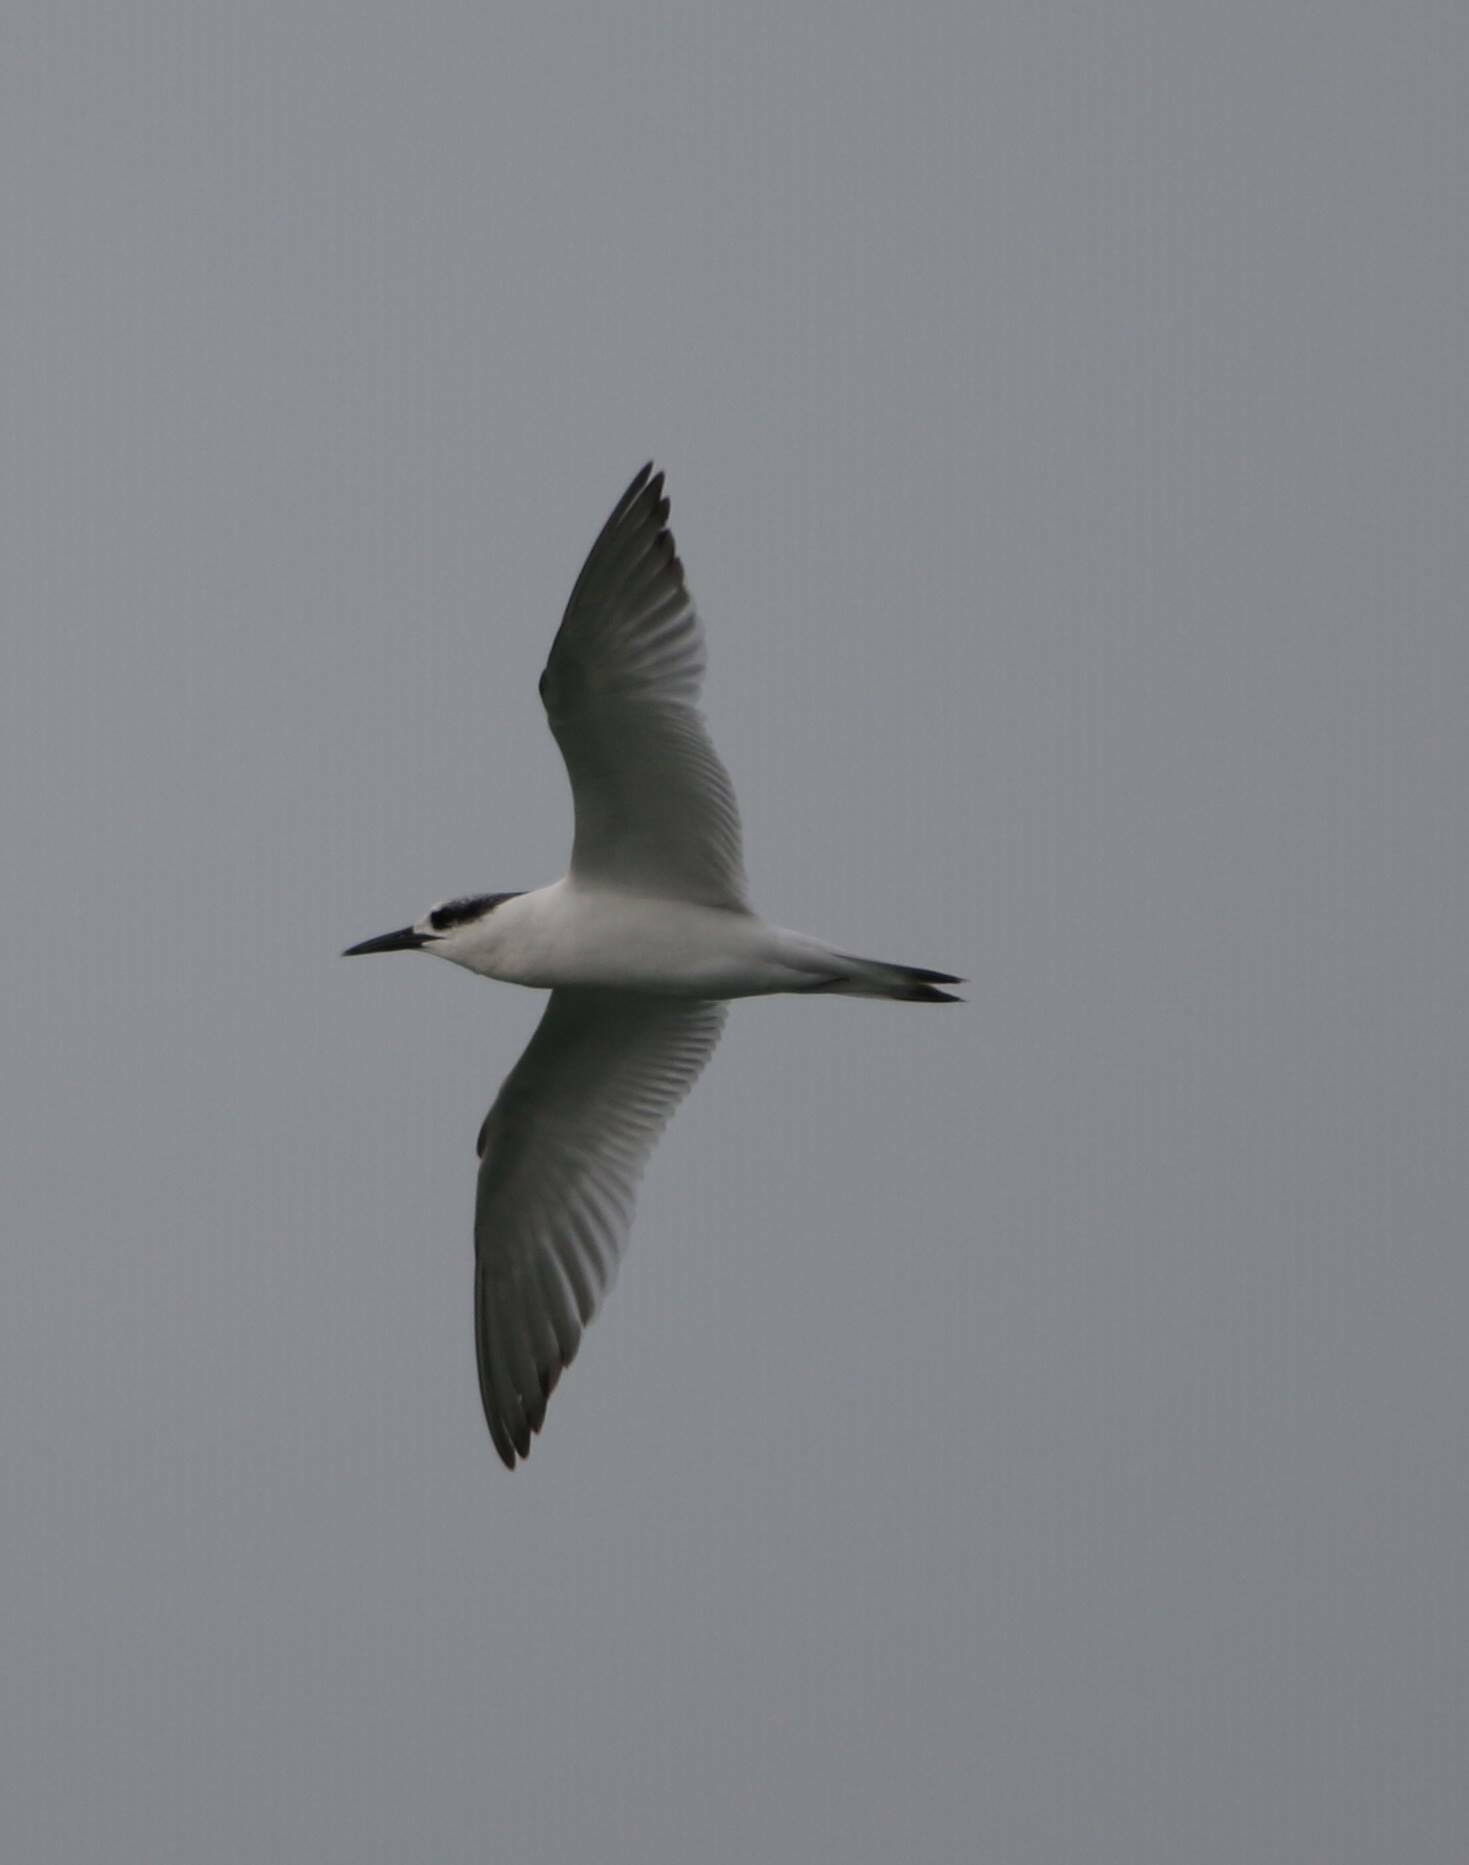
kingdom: Animalia
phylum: Chordata
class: Aves
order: Charadriiformes
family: Laridae
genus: Thalasseus
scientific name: Thalasseus sandvicensis
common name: Sandwich tern
